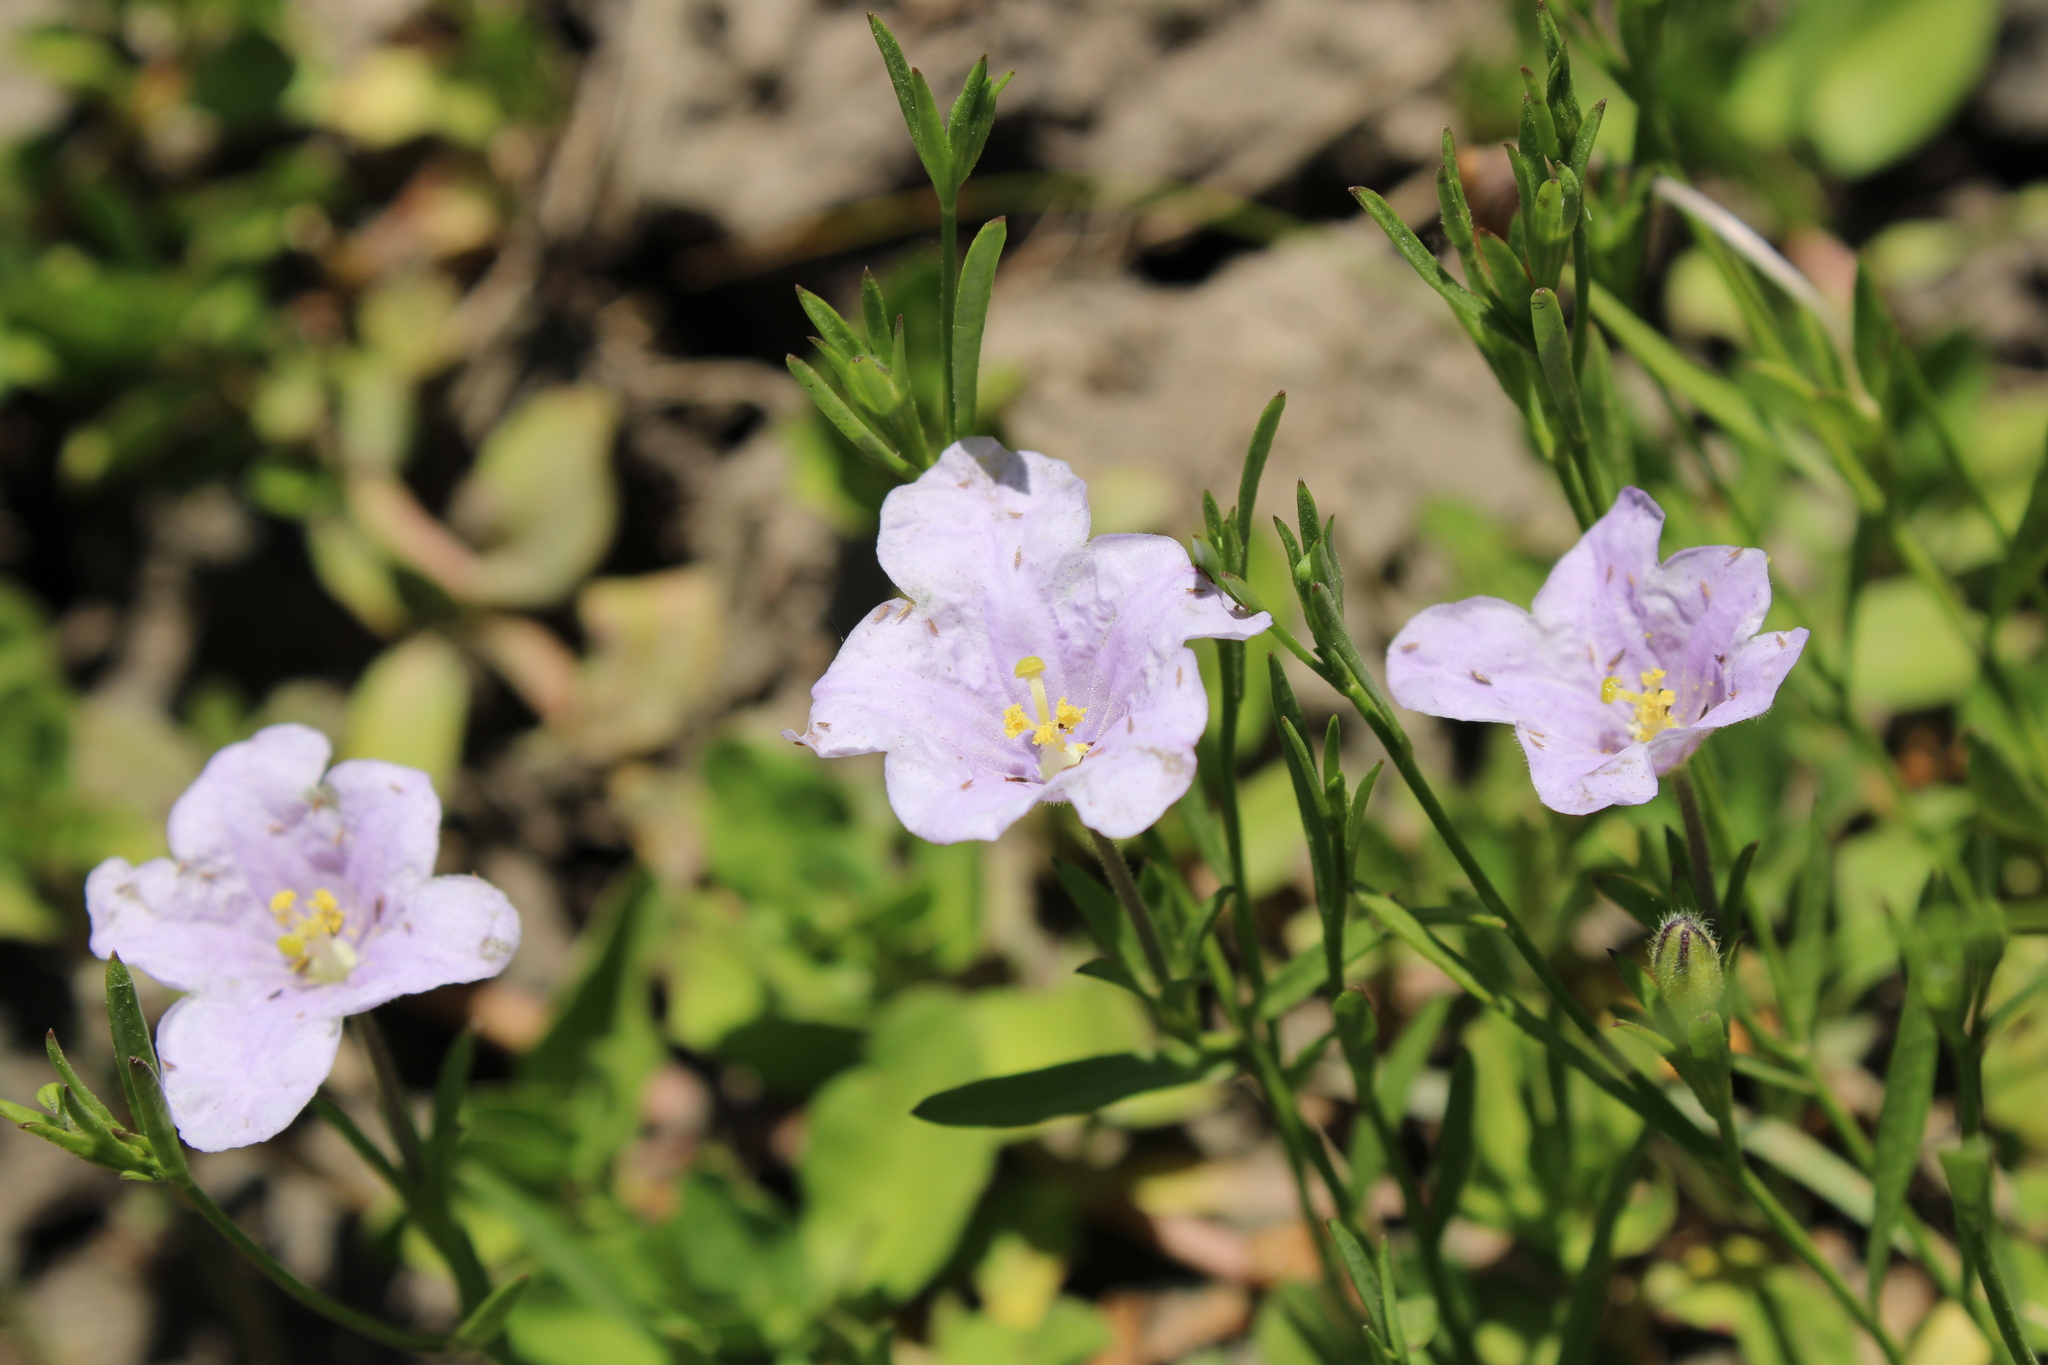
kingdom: Plantae
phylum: Tracheophyta
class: Magnoliopsida
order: Solanales
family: Solanaceae
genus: Nierembergia
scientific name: Nierembergia aristata
